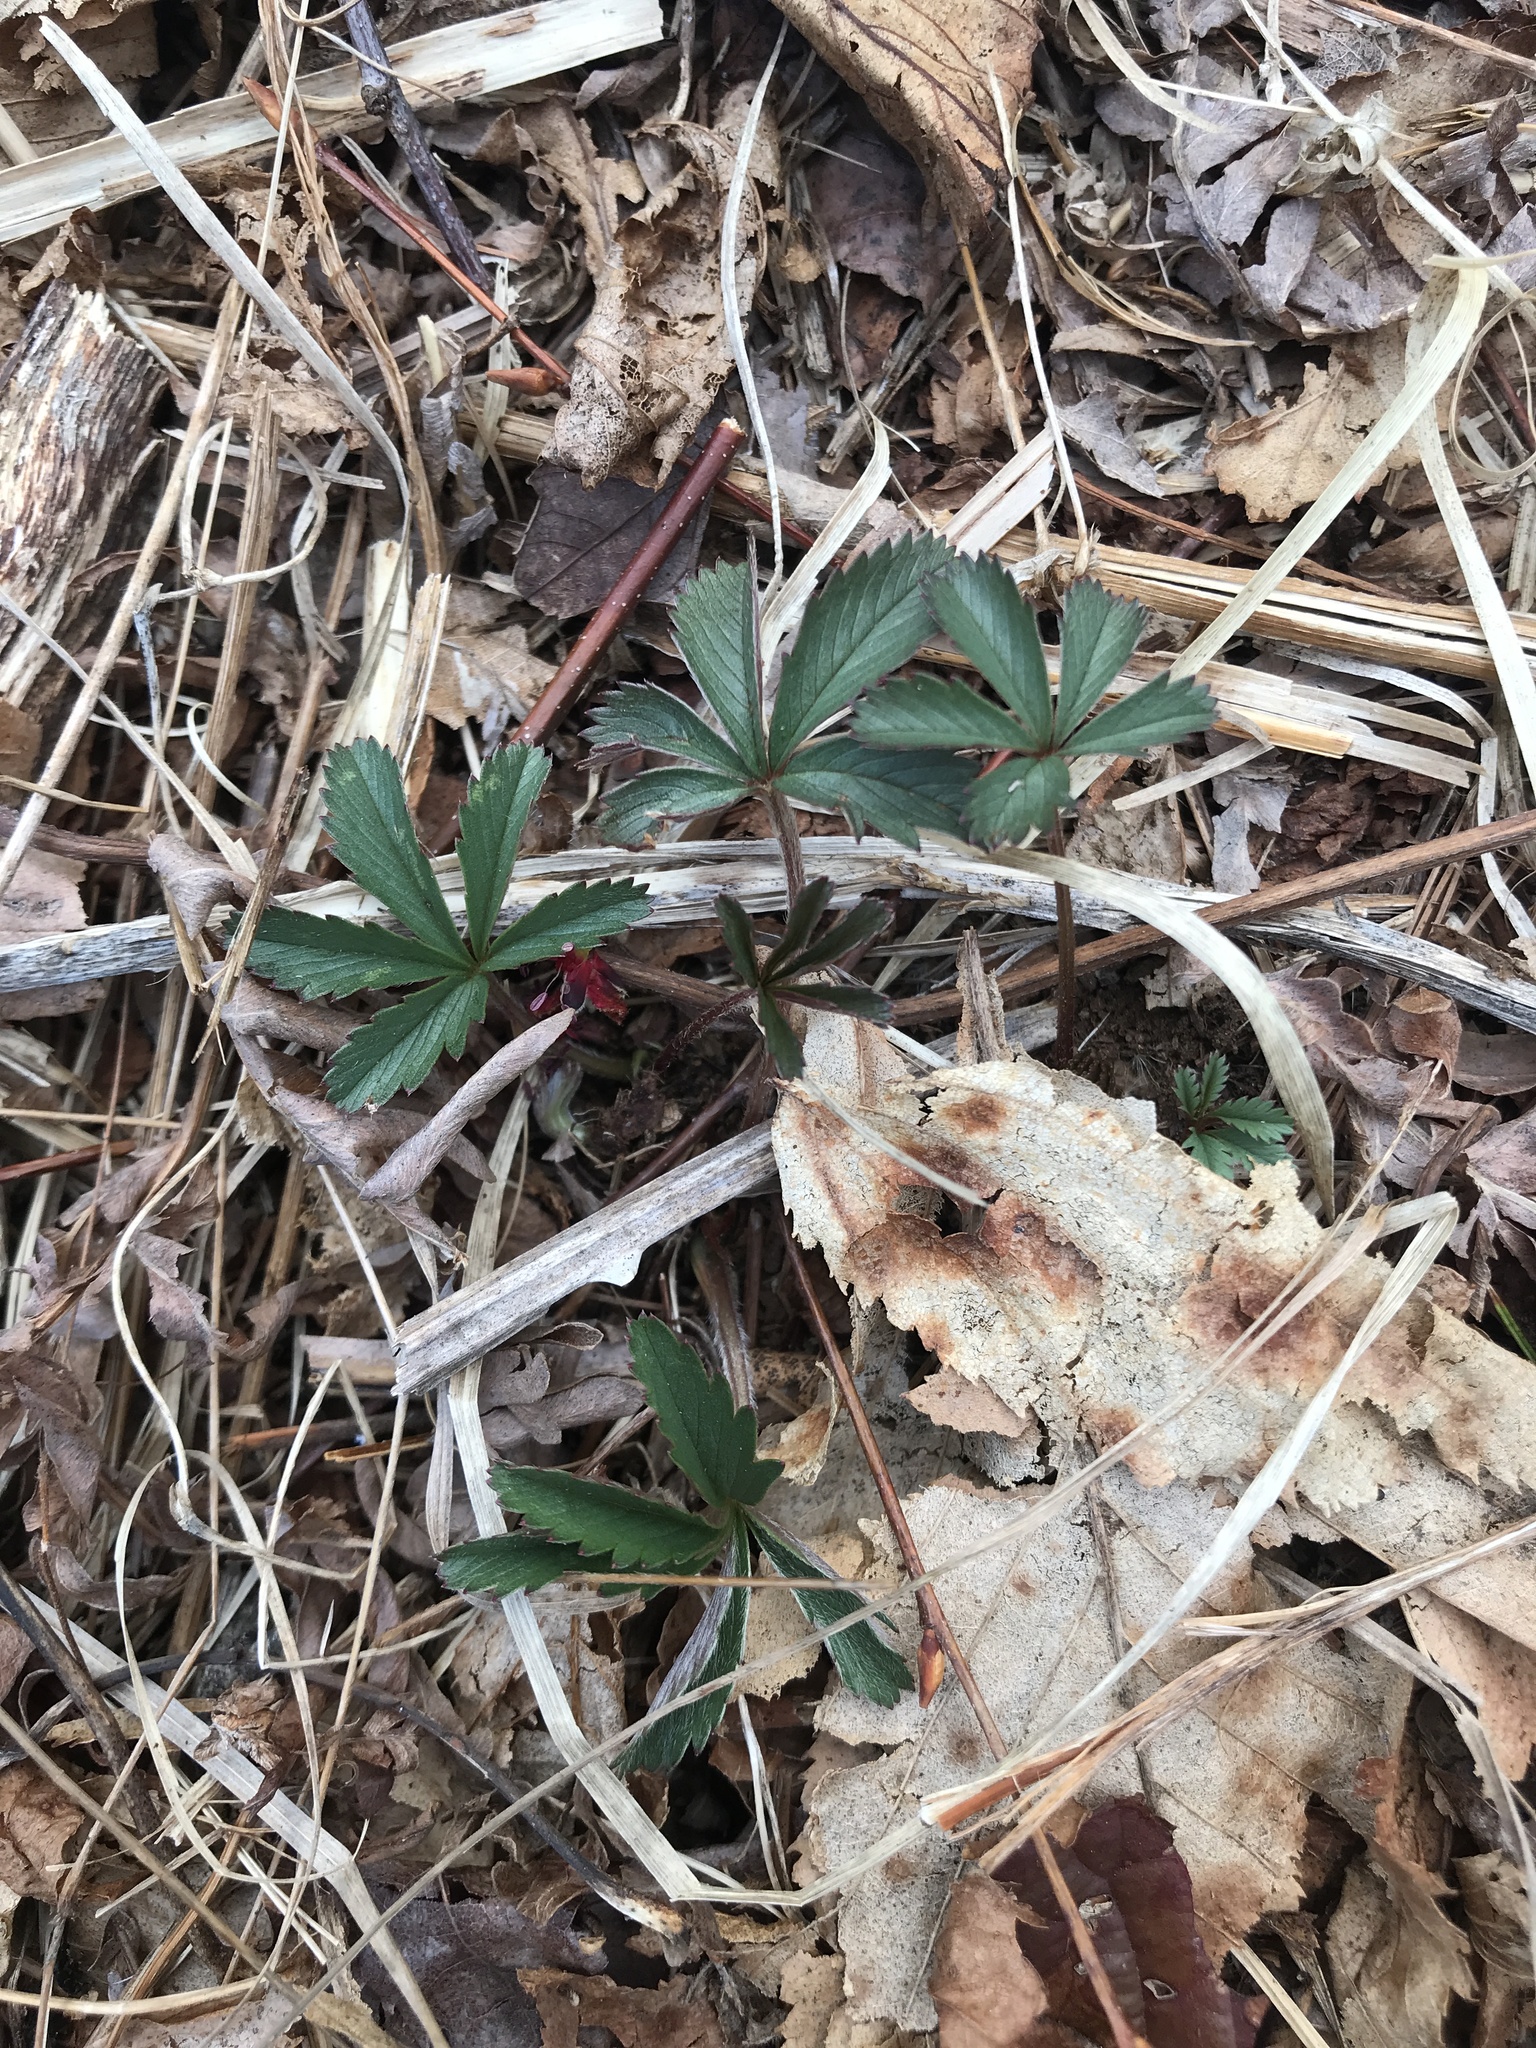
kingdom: Plantae
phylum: Tracheophyta
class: Magnoliopsida
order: Rosales
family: Rosaceae
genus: Potentilla
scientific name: Potentilla canadensis
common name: Canada cinquefoil
